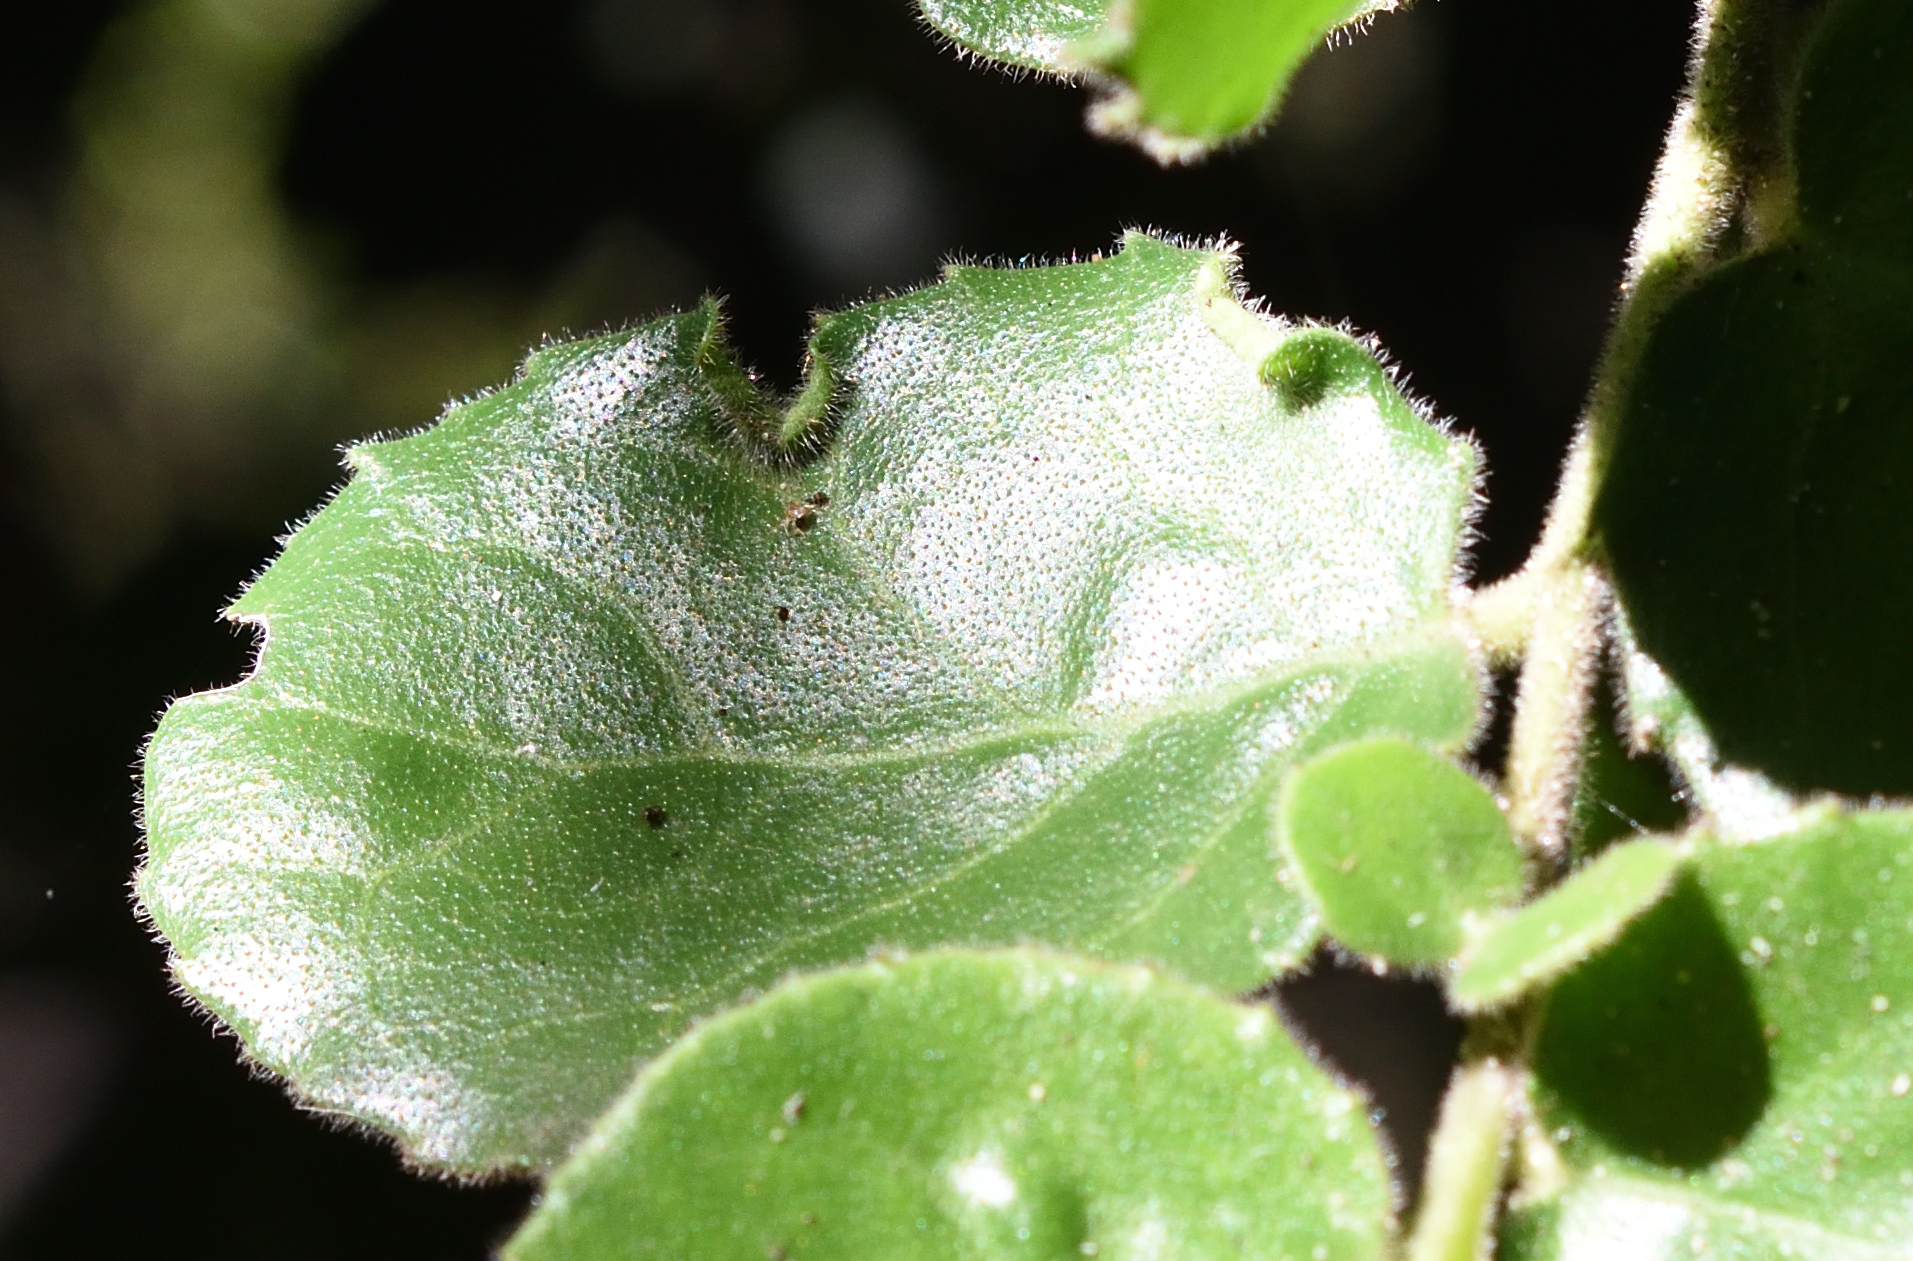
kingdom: Plantae
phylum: Tracheophyta
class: Magnoliopsida
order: Celastrales
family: Celastraceae
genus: Mystroxylon
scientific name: Mystroxylon aethiopicum
